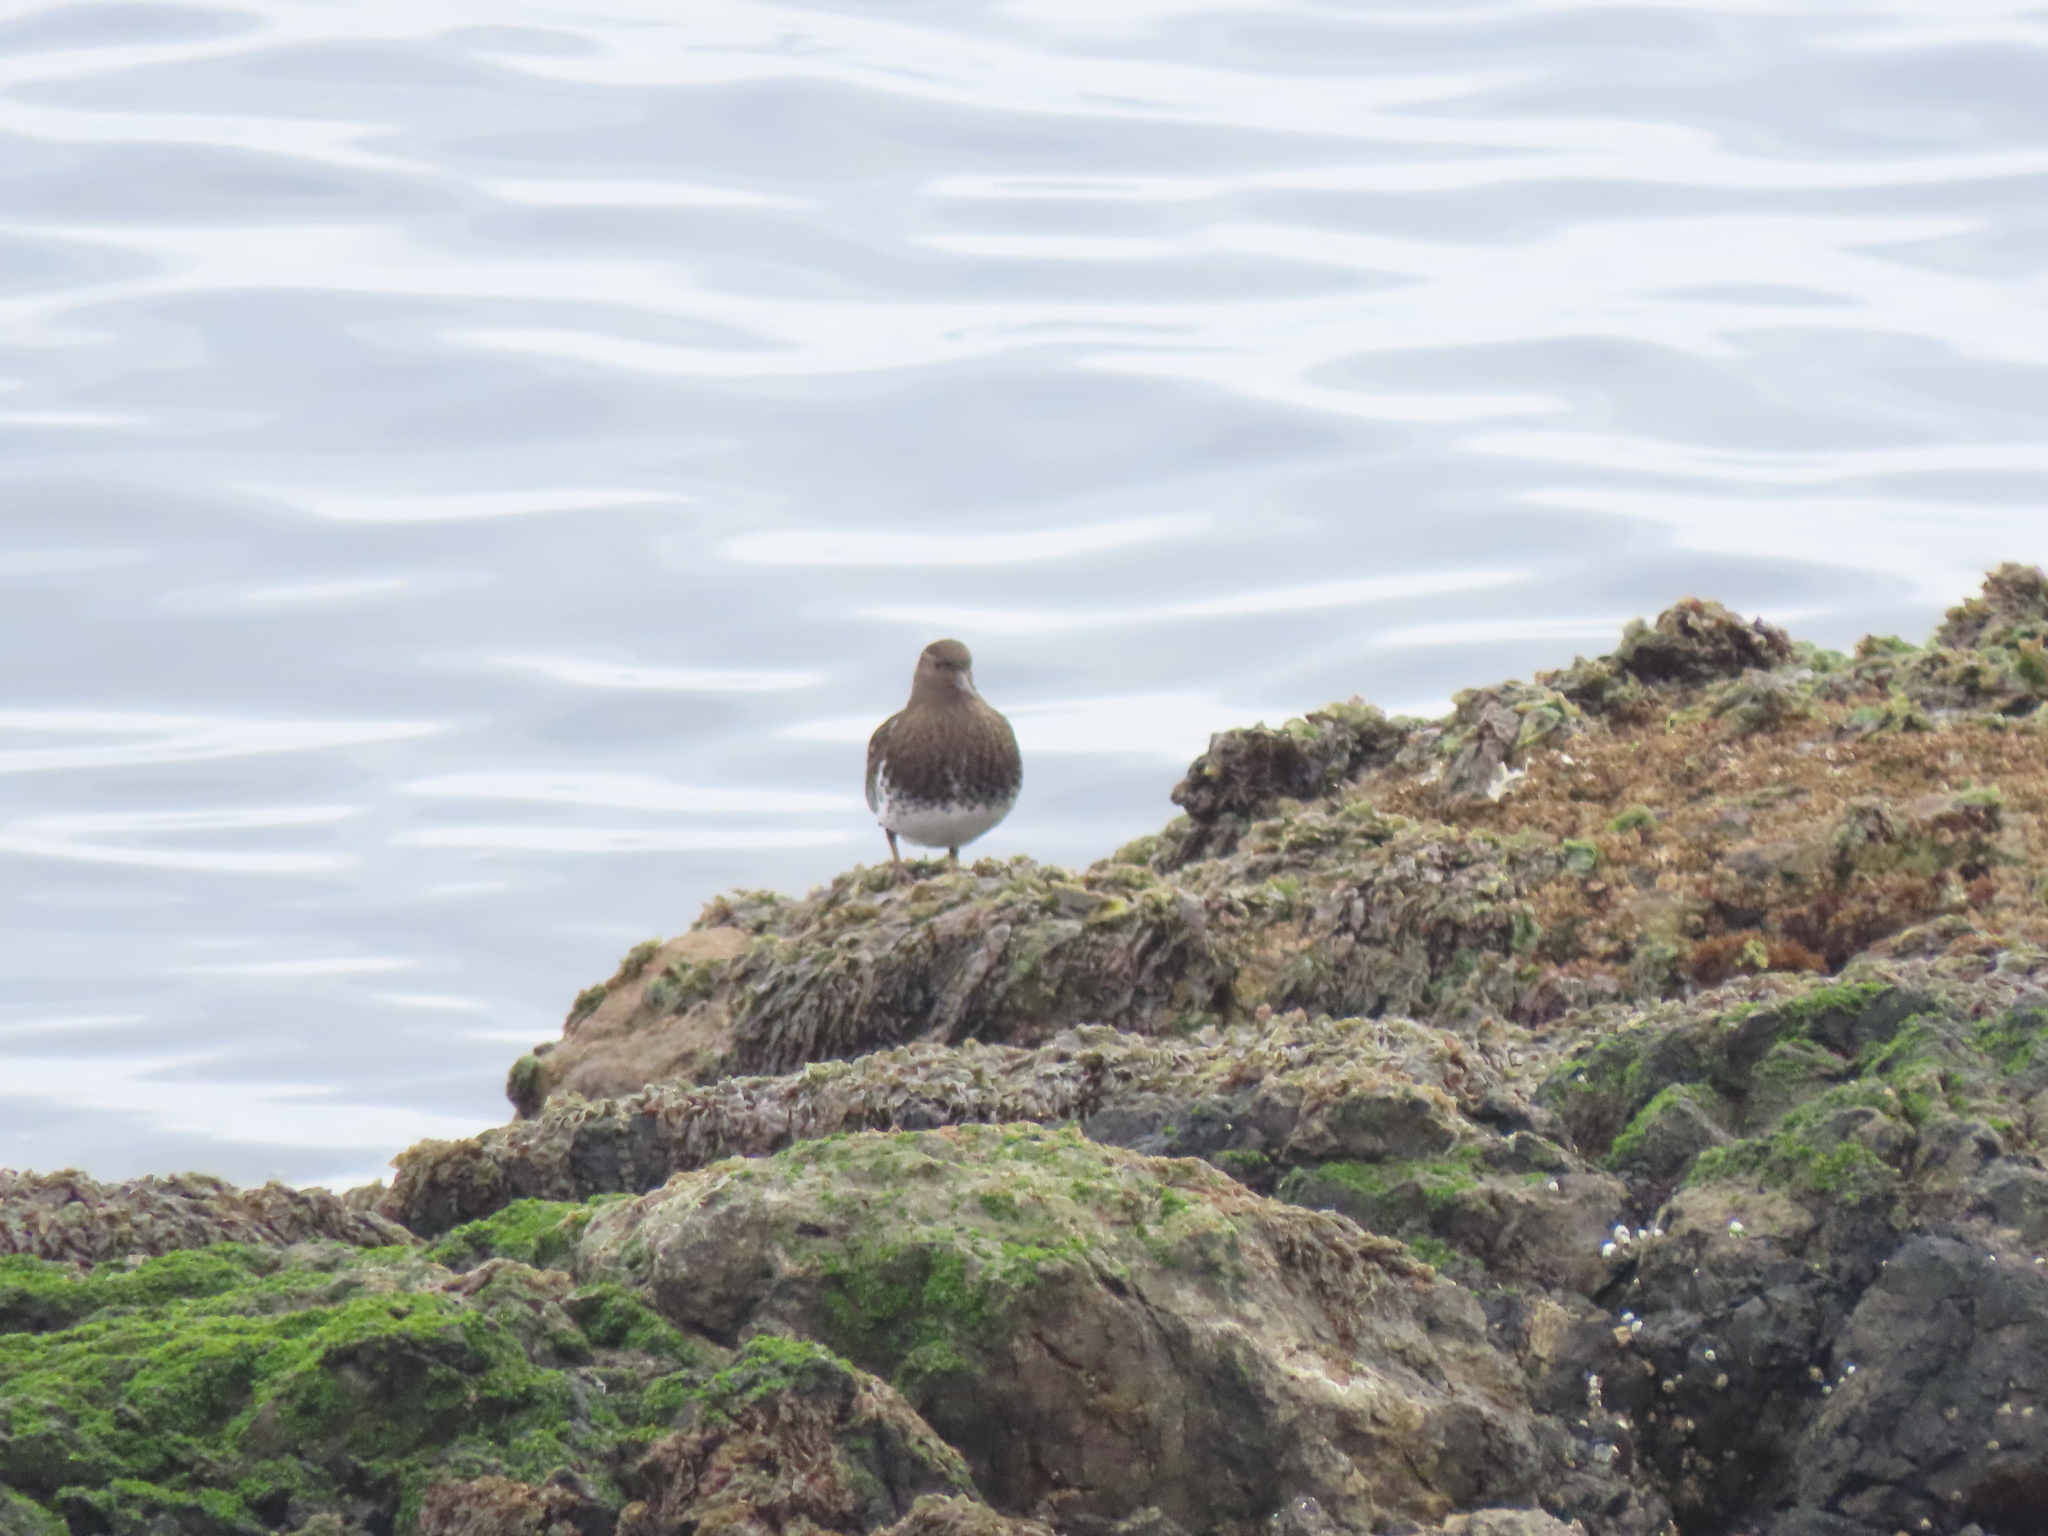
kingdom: Animalia
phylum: Chordata
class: Aves
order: Charadriiformes
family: Scolopacidae
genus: Arenaria
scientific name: Arenaria melanocephala
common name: Black turnstone
